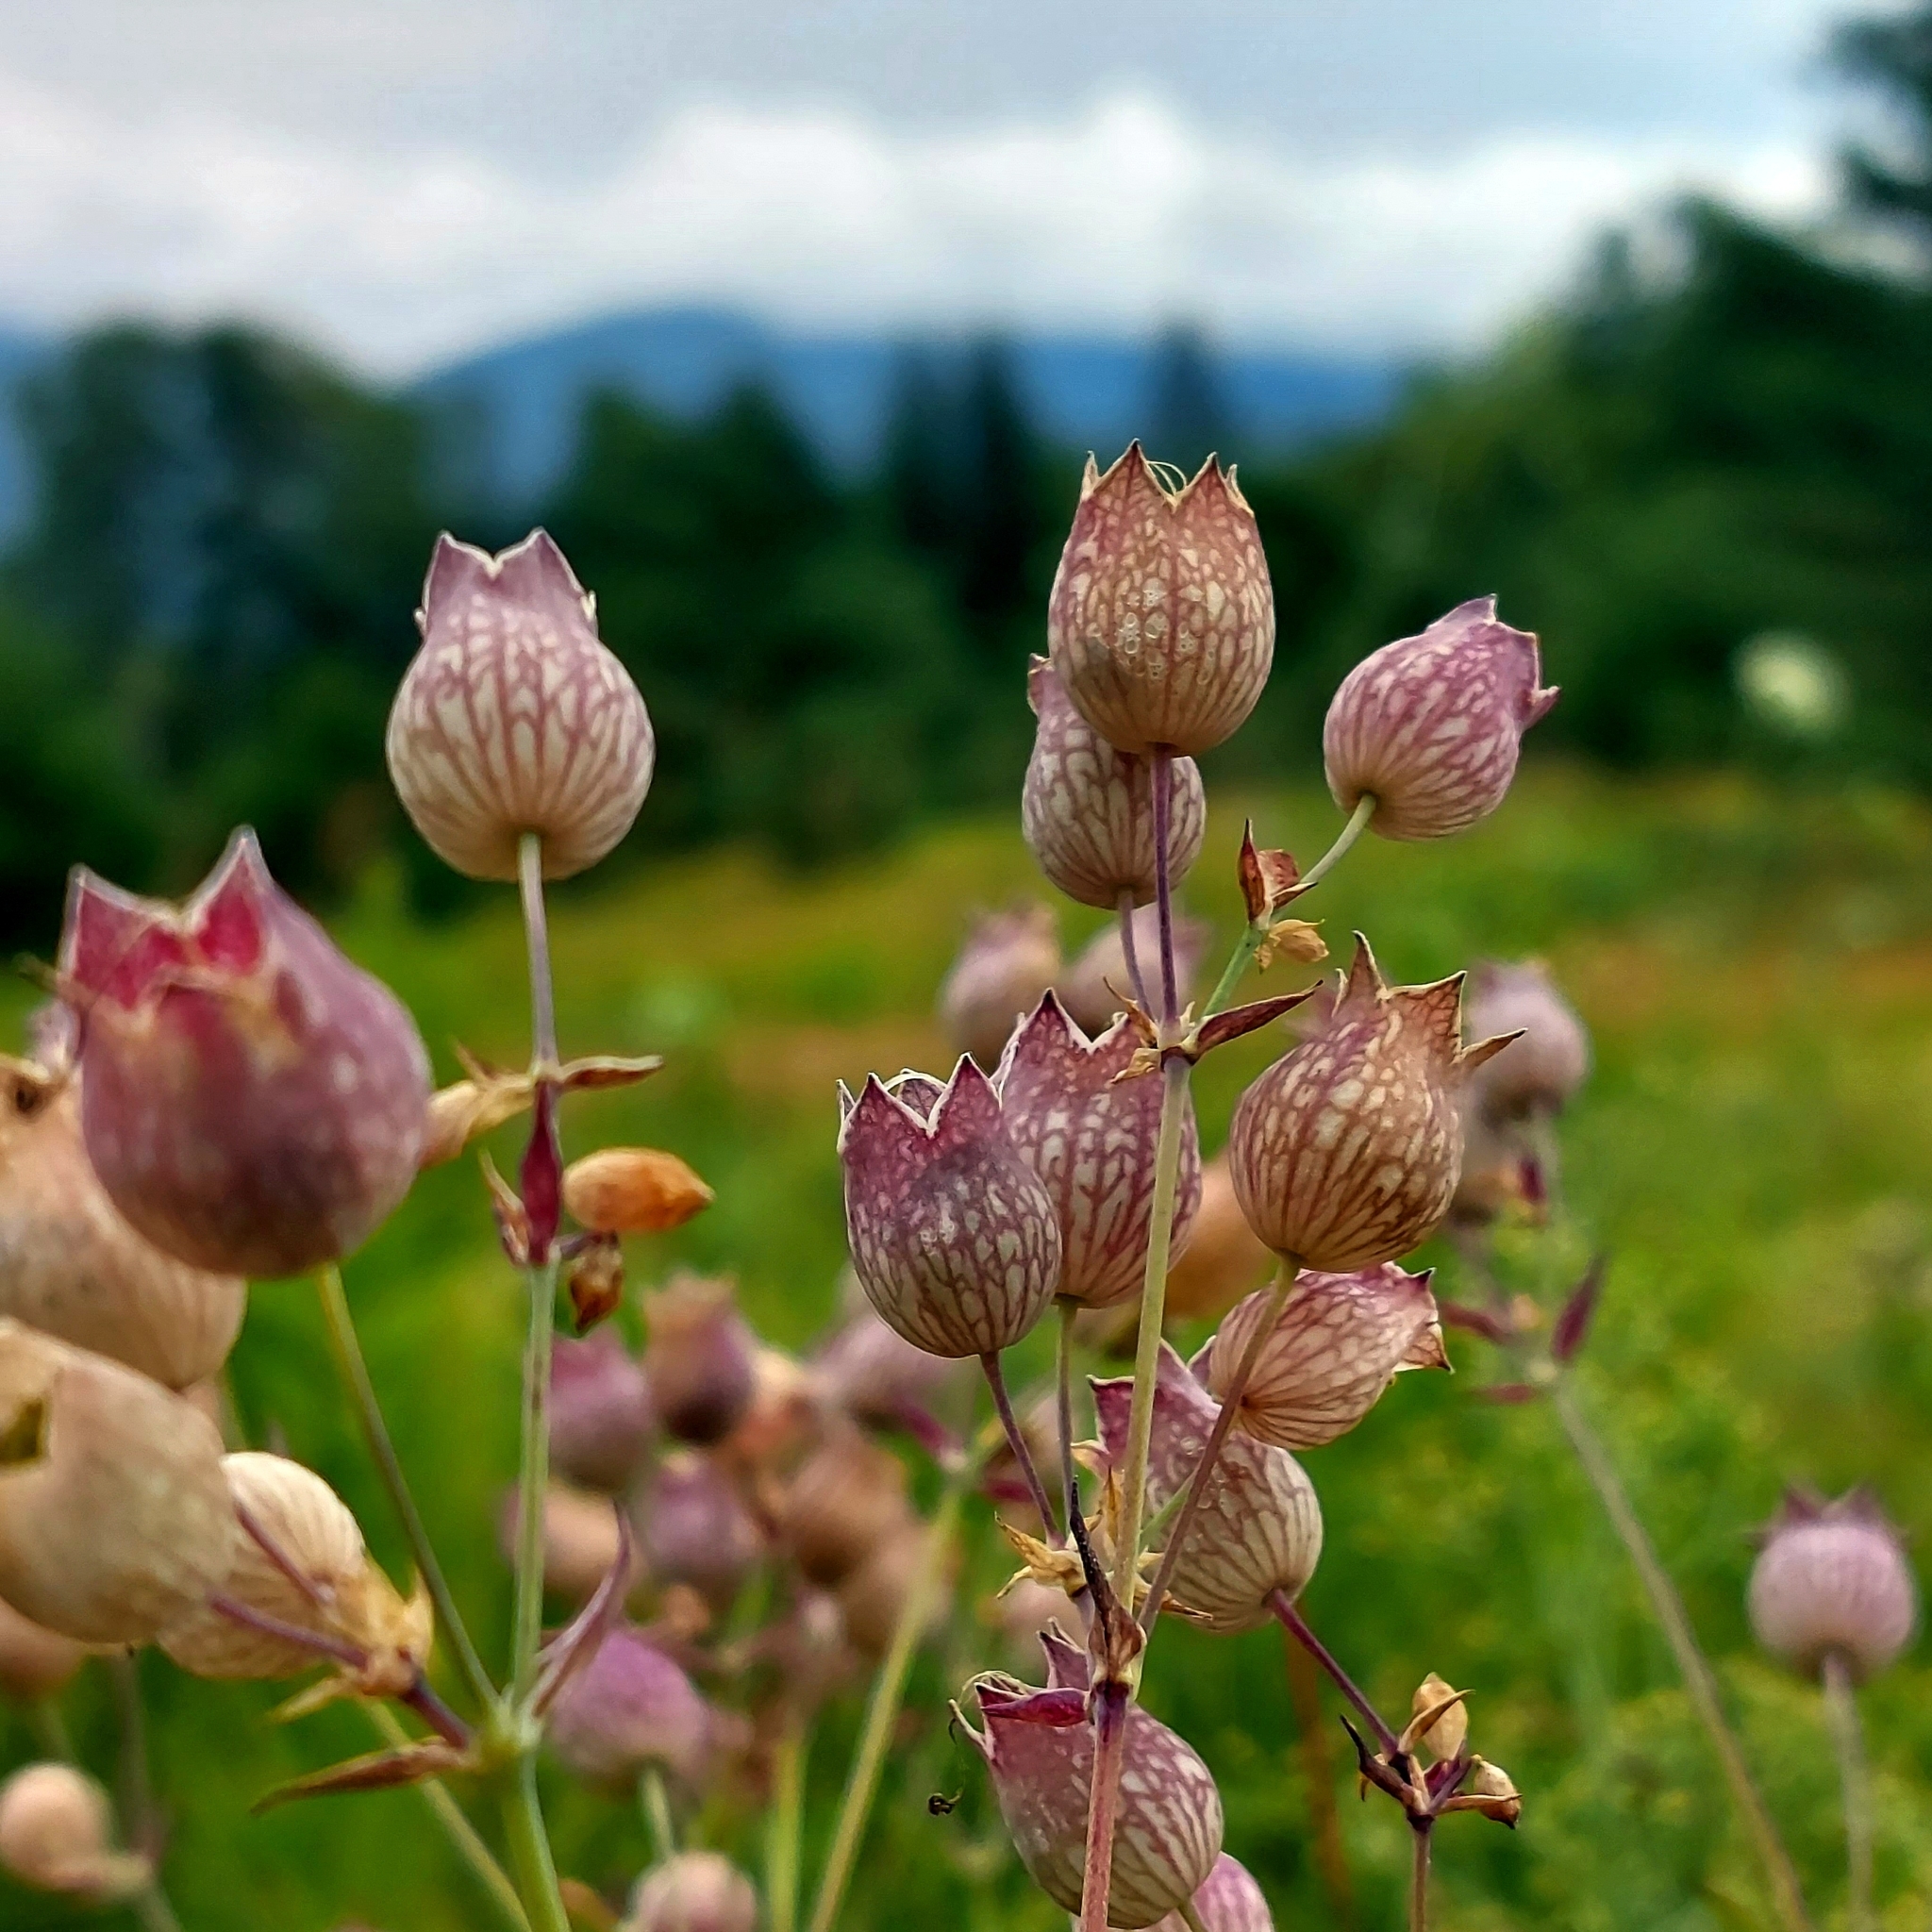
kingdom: Plantae
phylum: Tracheophyta
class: Magnoliopsida
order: Caryophyllales
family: Caryophyllaceae
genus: Silene
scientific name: Silene vulgaris
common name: Bladder campion
